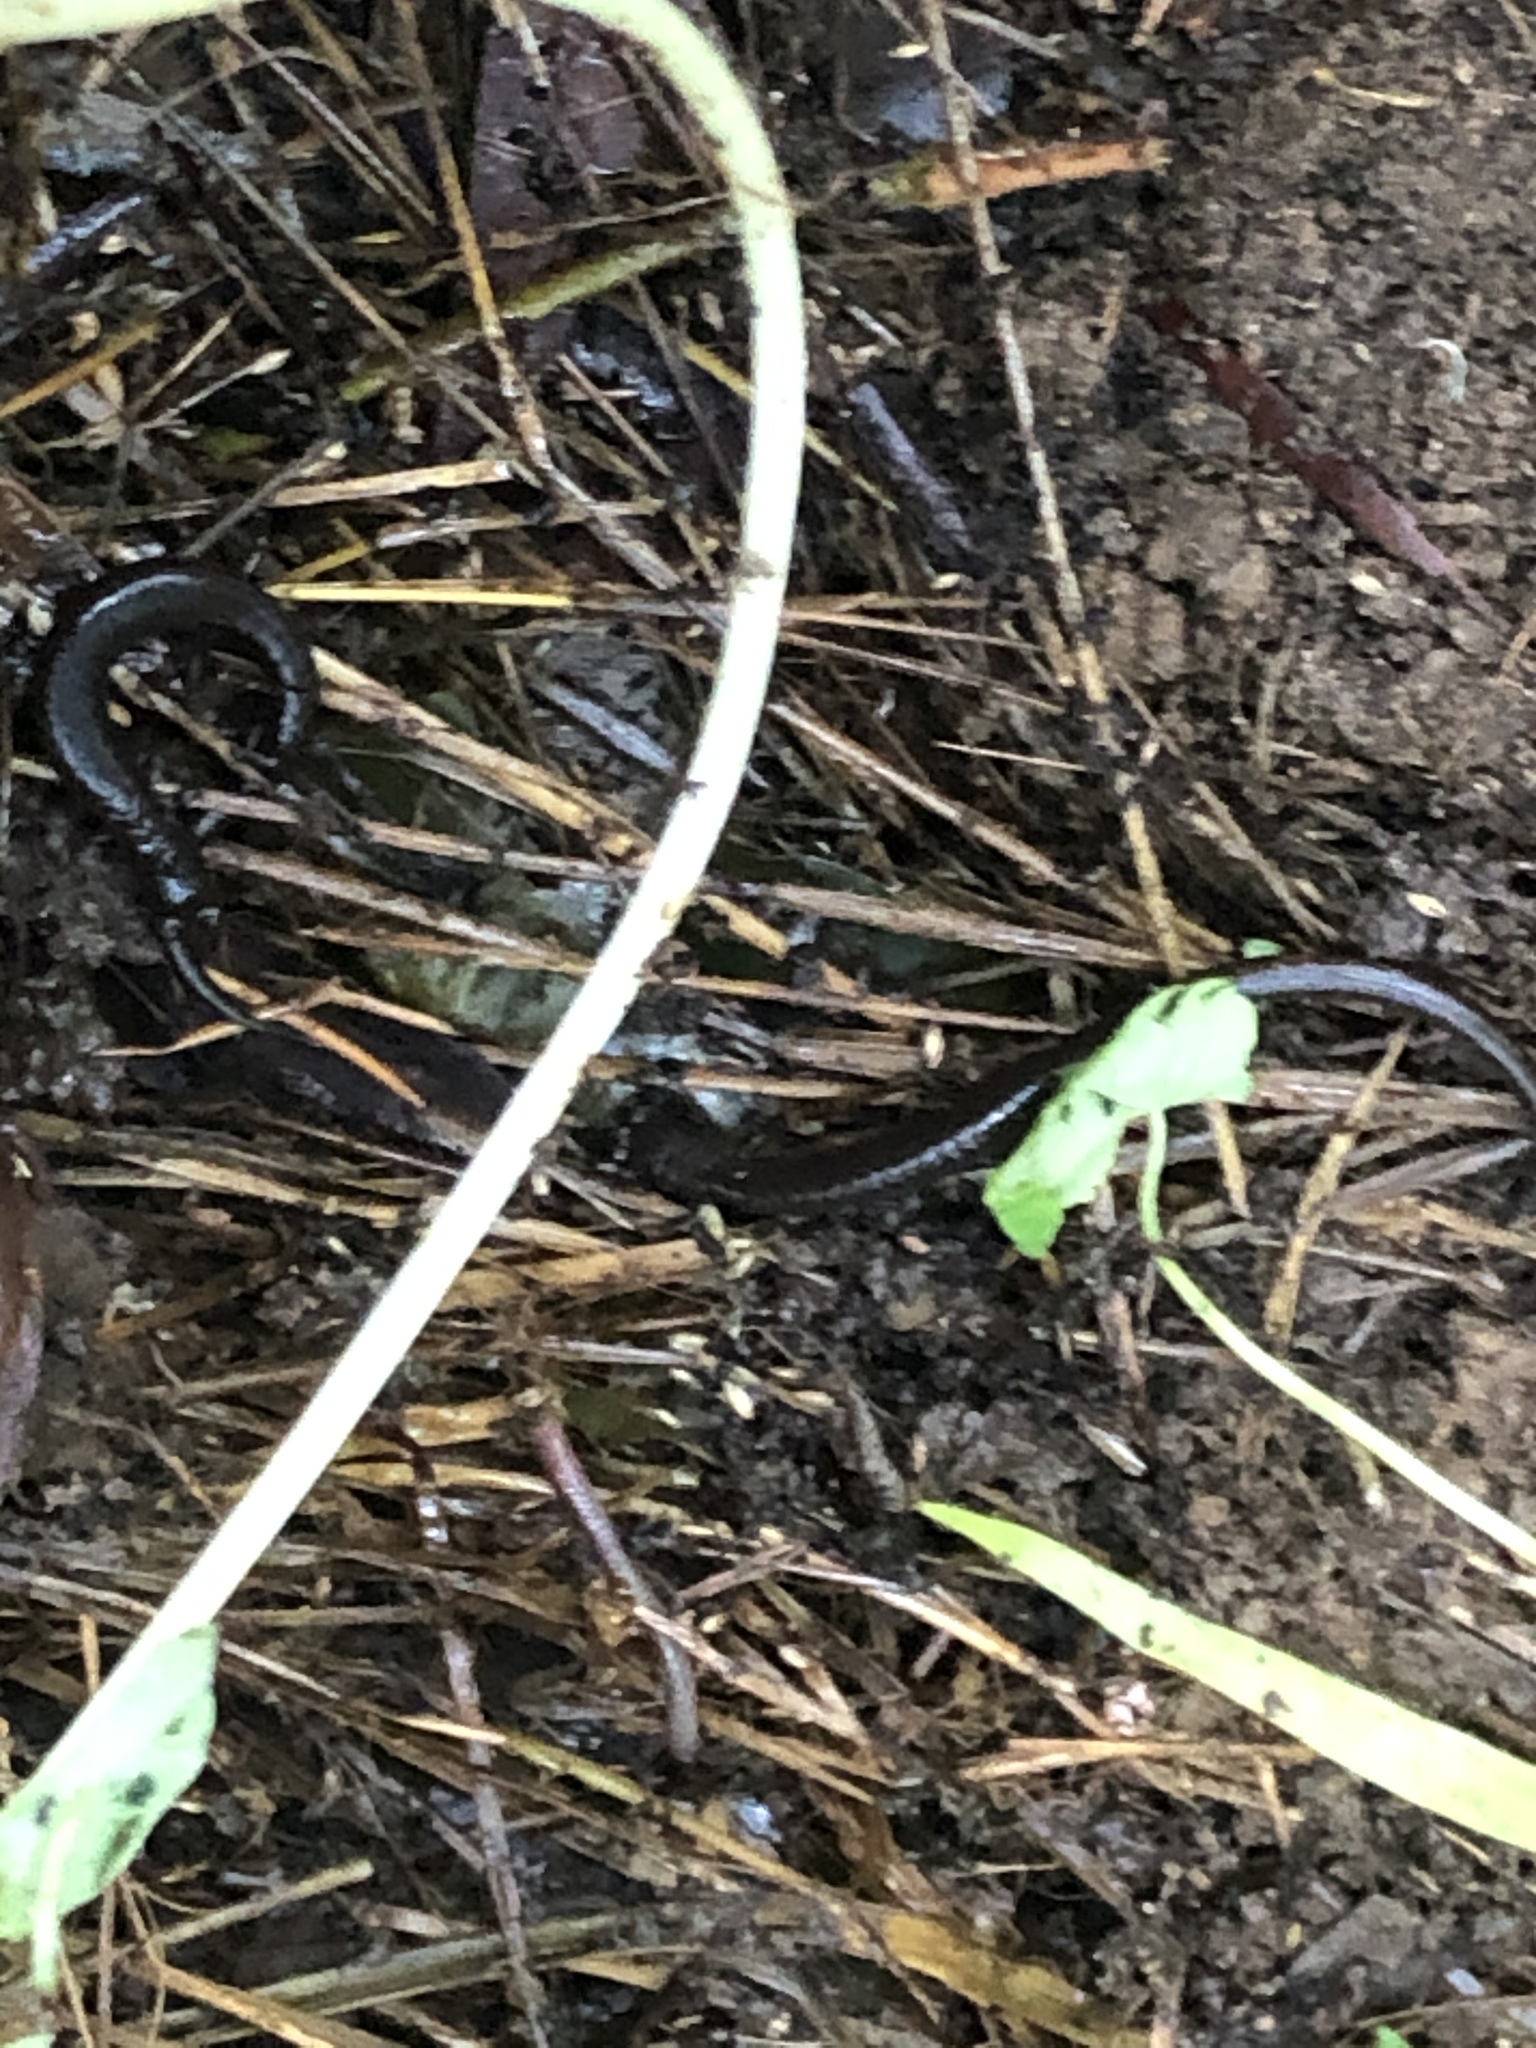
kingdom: Animalia
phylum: Chordata
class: Amphibia
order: Caudata
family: Plethodontidae
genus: Batrachoseps
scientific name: Batrachoseps attenuatus
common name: California slender salamander
